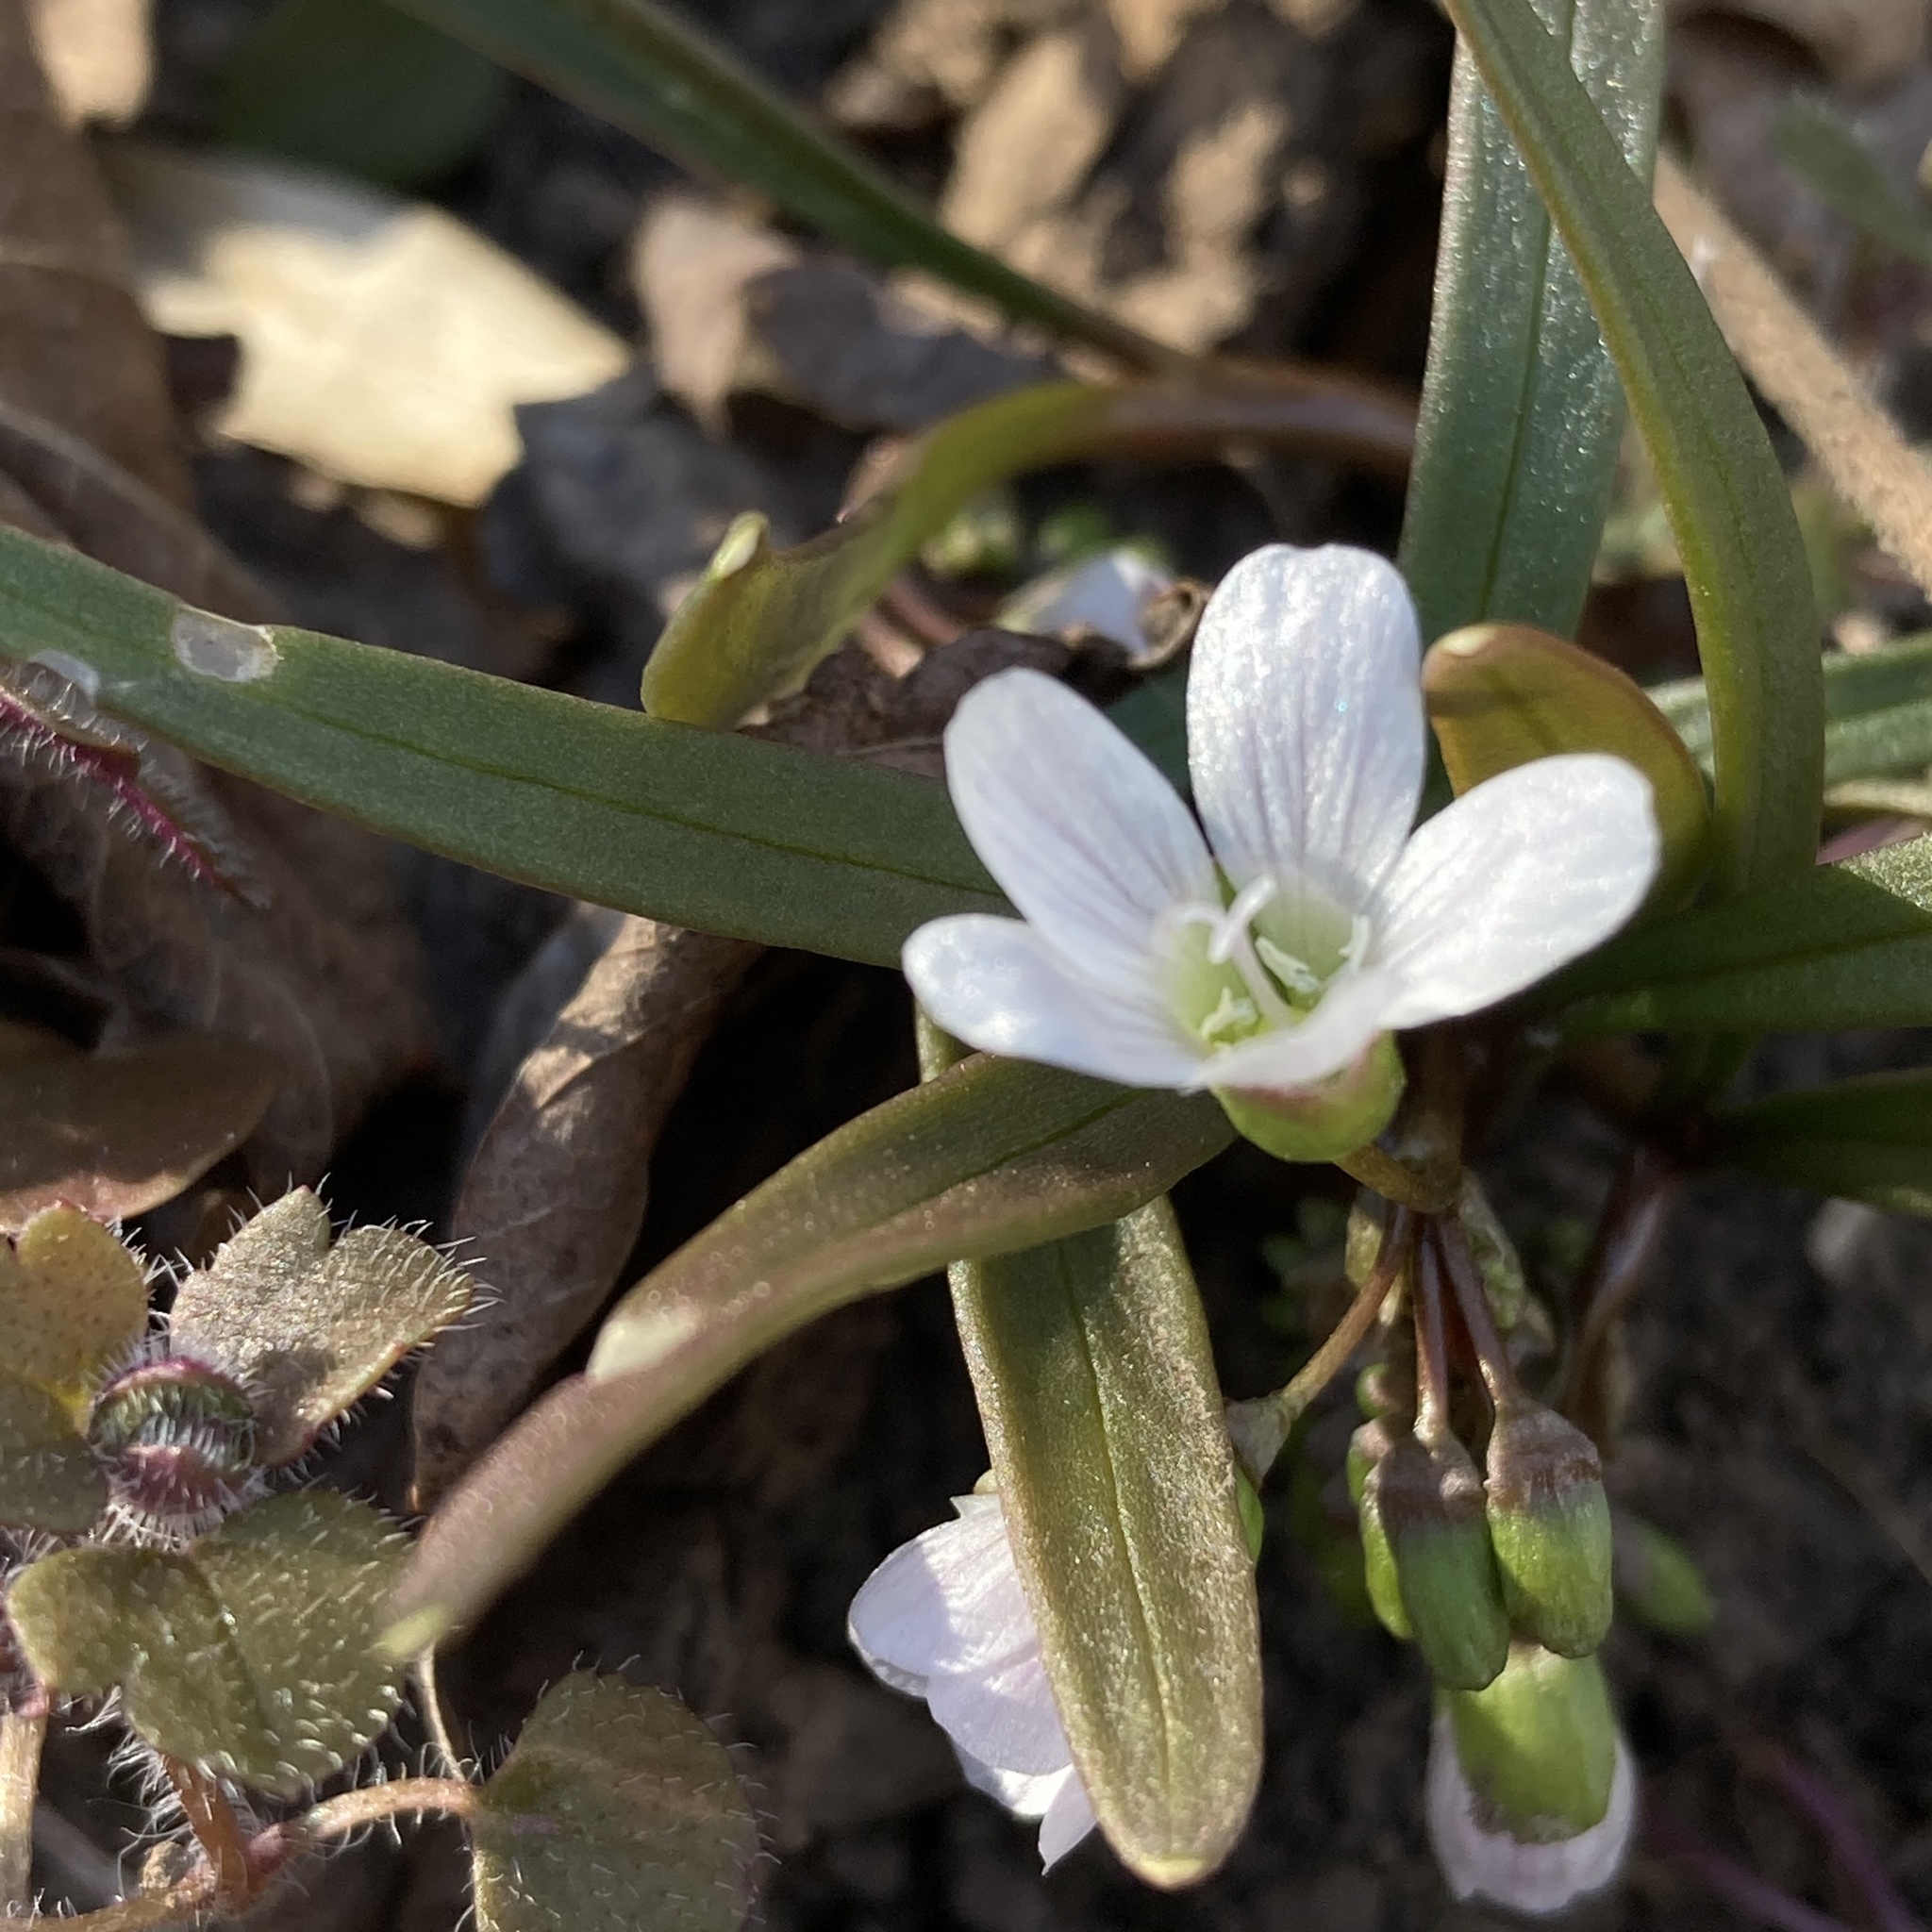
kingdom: Plantae
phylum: Tracheophyta
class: Magnoliopsida
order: Caryophyllales
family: Montiaceae
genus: Claytonia
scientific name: Claytonia virginica
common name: Virginia springbeauty
